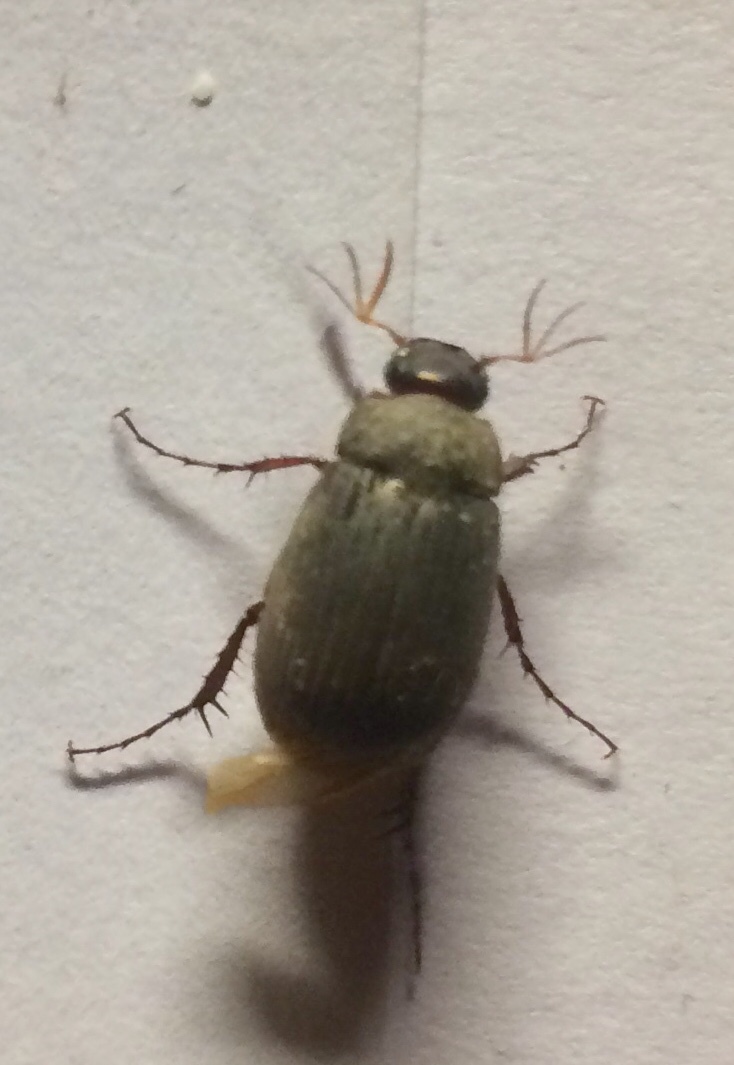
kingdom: Animalia
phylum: Arthropoda
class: Insecta
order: Coleoptera
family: Scarabaeidae
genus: Maladera
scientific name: Maladera holosericea
